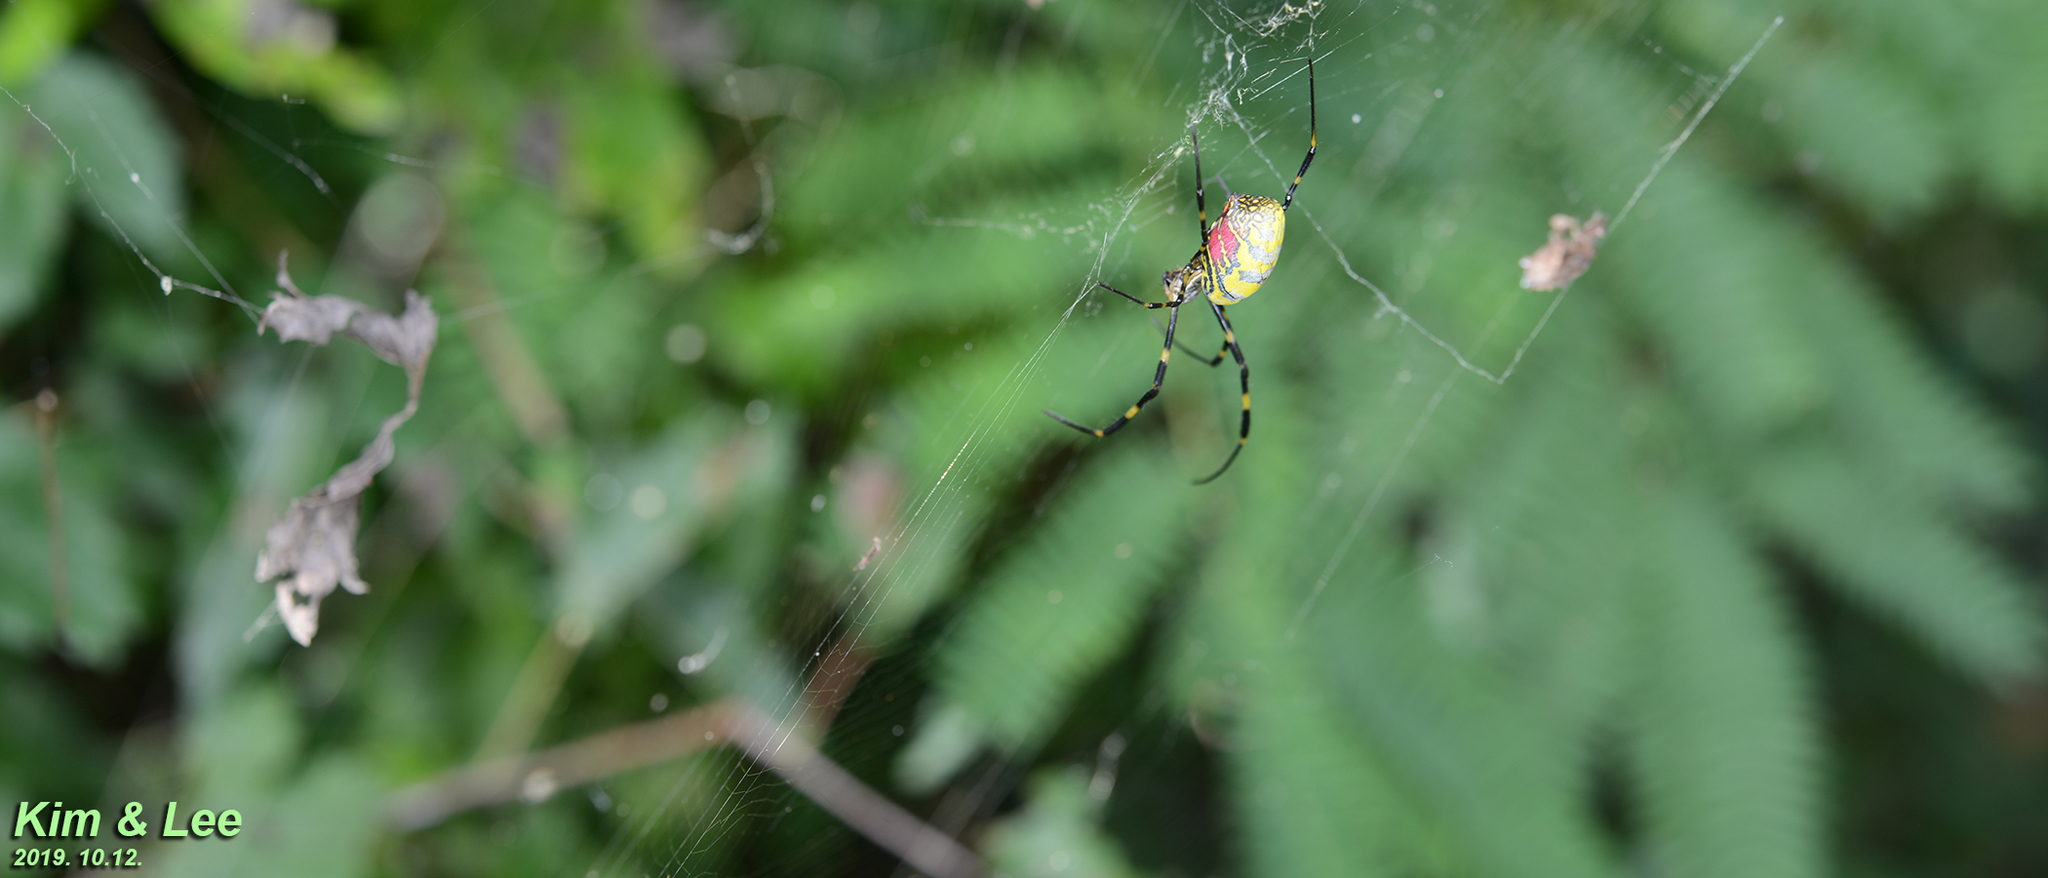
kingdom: Animalia
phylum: Arthropoda
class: Arachnida
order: Araneae
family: Araneidae
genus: Trichonephila
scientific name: Trichonephila clavata
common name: Jorō spider
